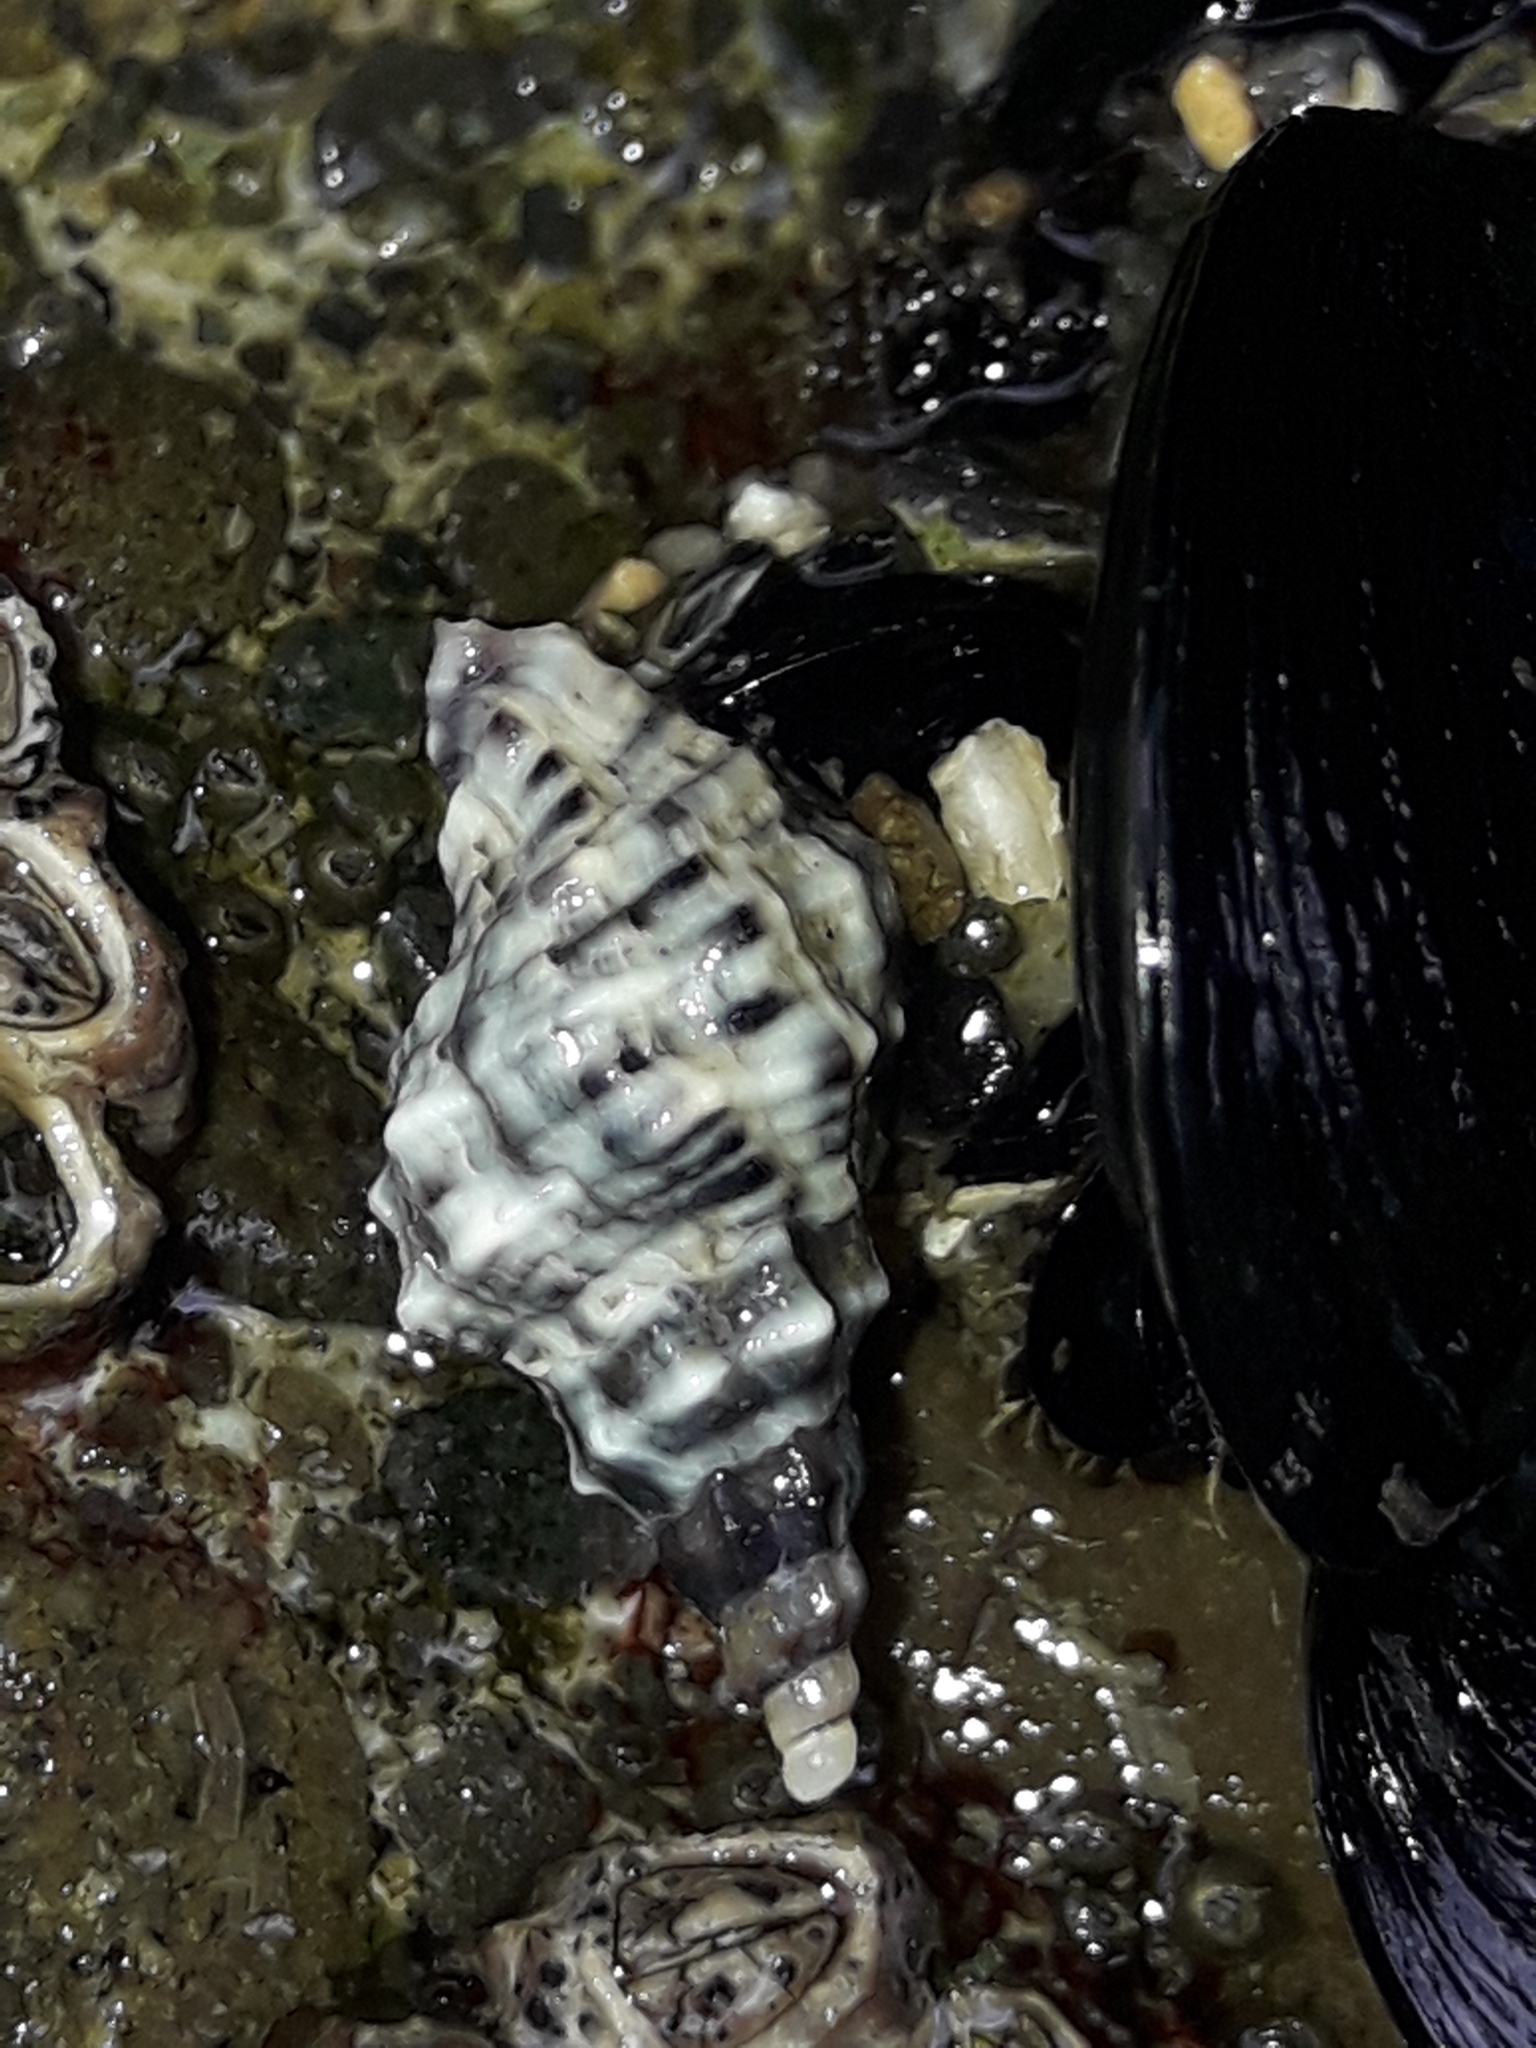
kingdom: Animalia
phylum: Mollusca
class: Gastropoda
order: Neogastropoda
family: Muricidae
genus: Haustrum
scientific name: Haustrum scobina
